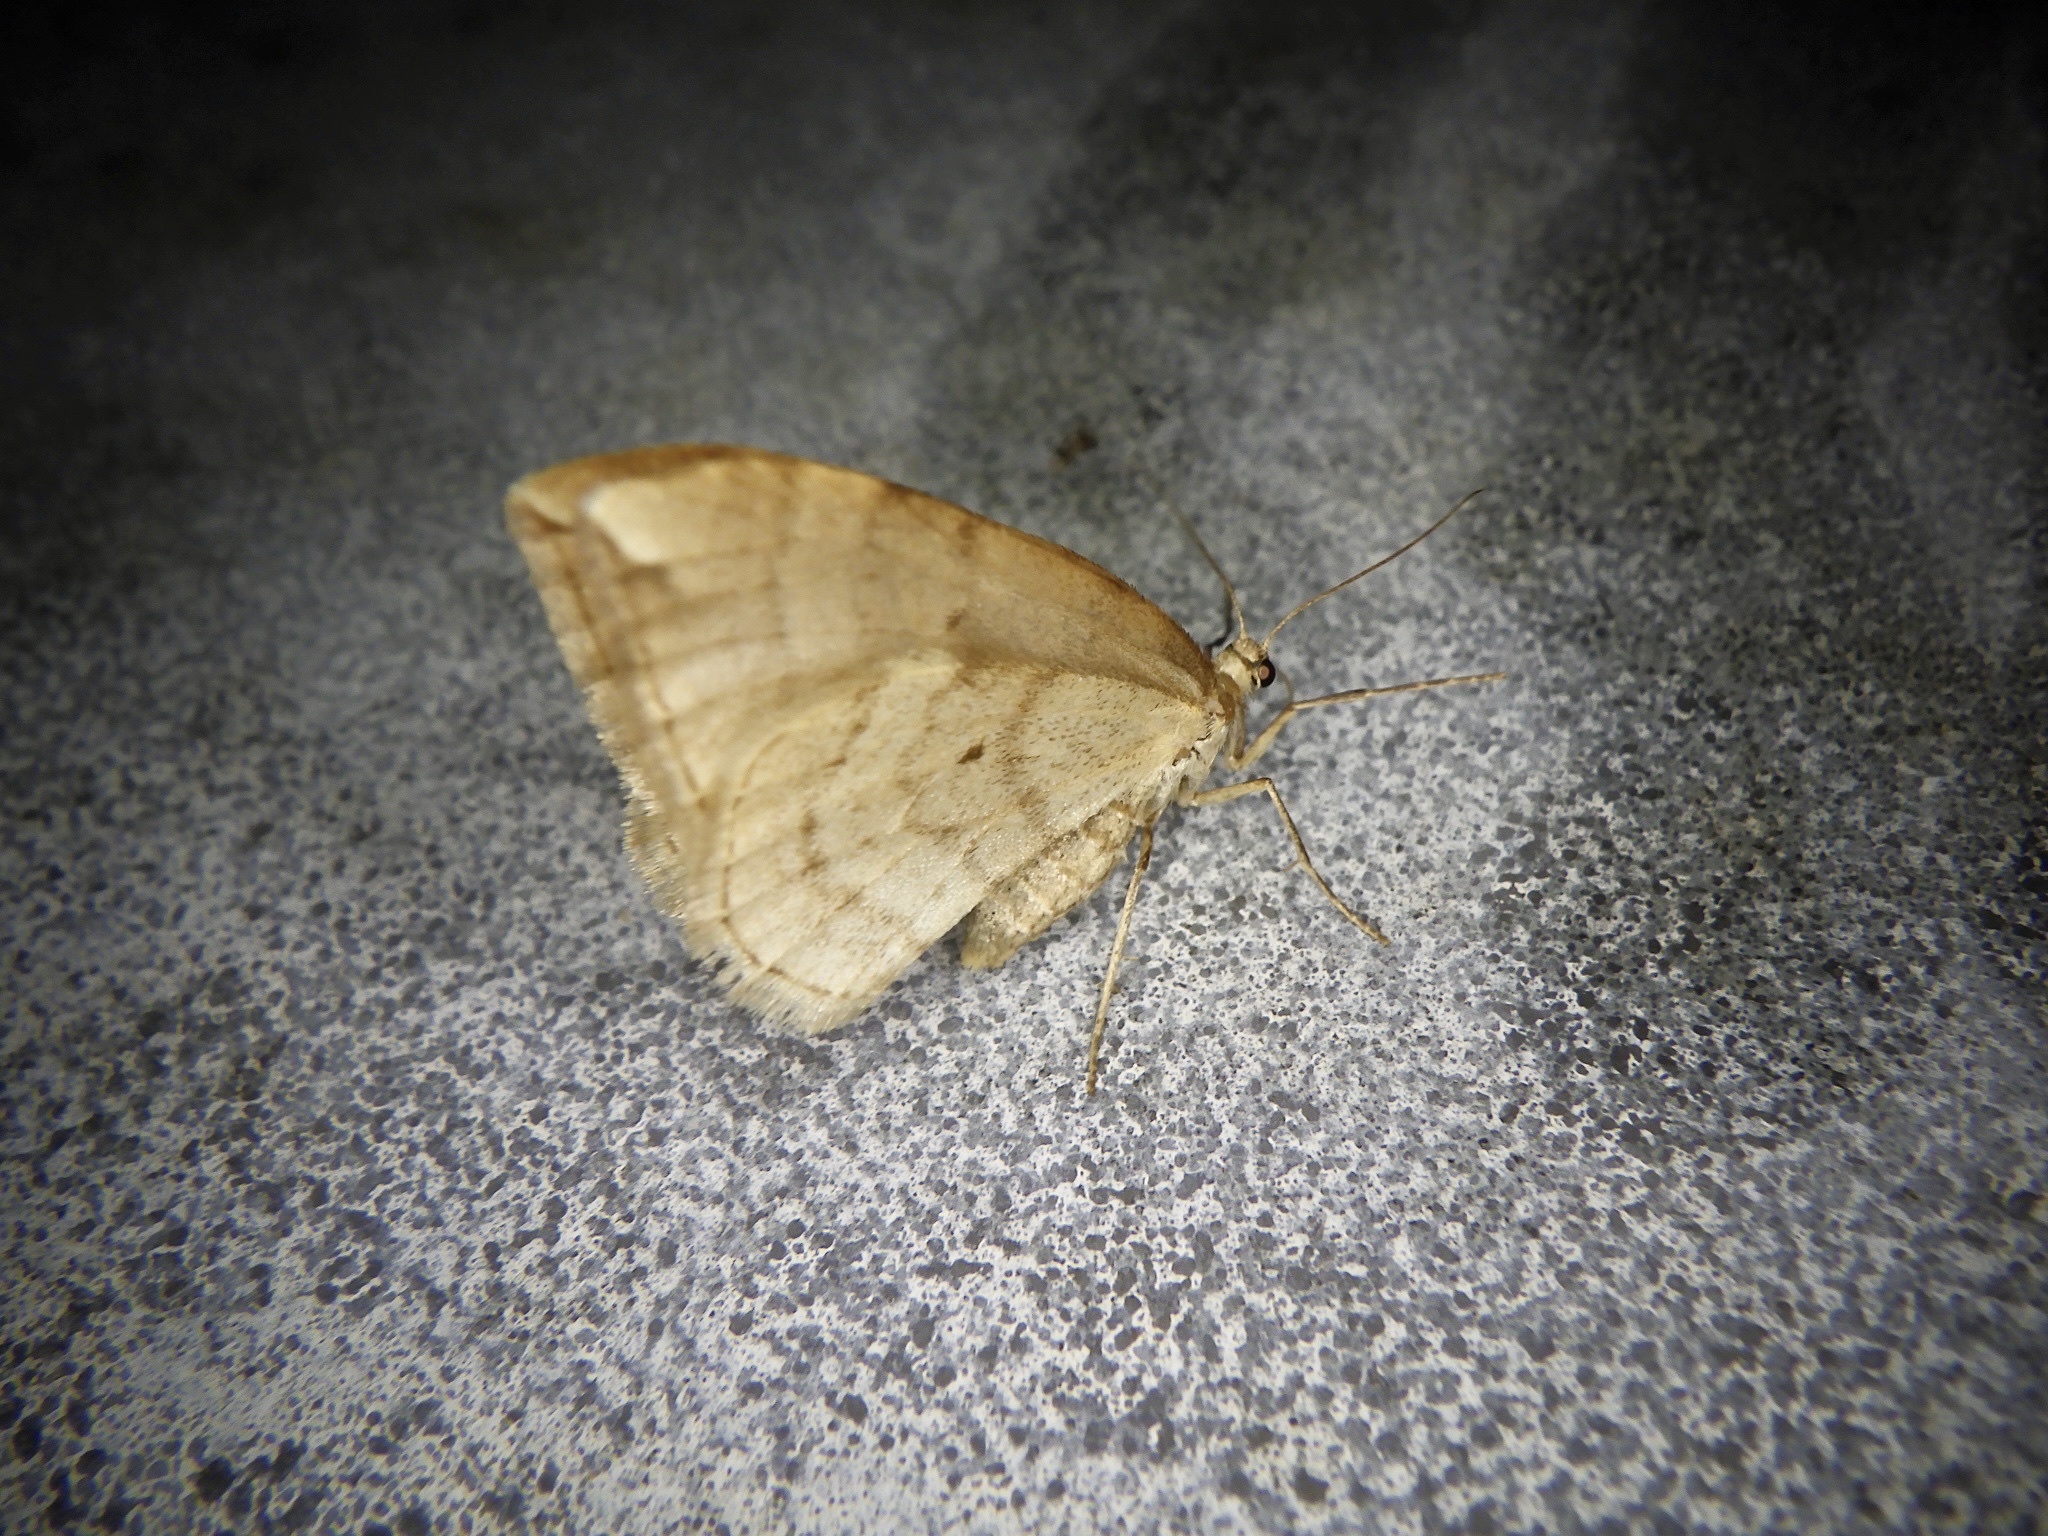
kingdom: Animalia
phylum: Arthropoda
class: Insecta
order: Lepidoptera
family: Geometridae
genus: Nothoporinia
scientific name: Nothoporinia mediolineata
